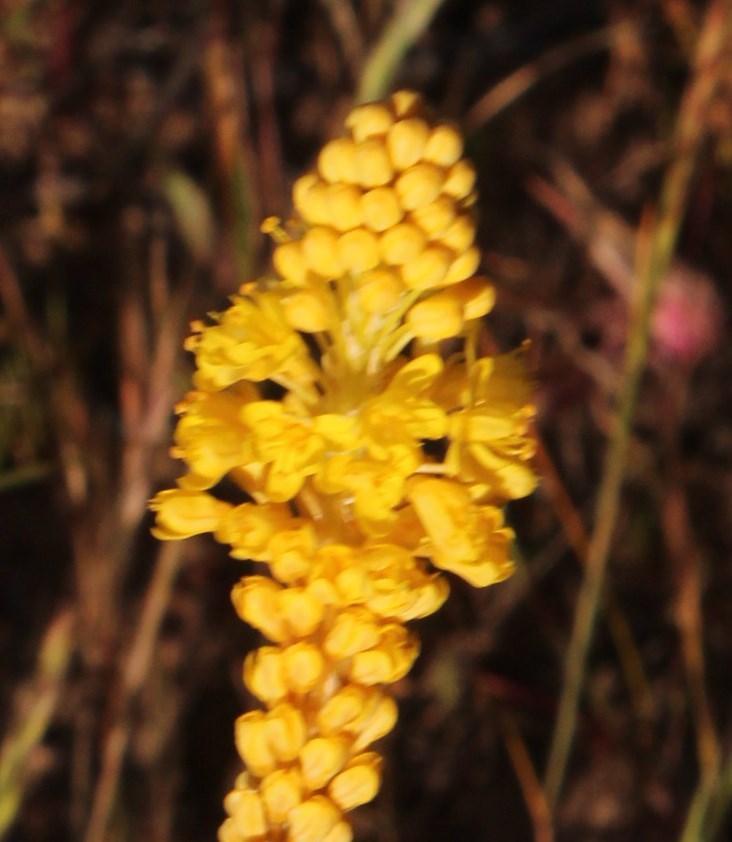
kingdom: Plantae
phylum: Tracheophyta
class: Liliopsida
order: Asparagales
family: Asphodelaceae
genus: Bulbinella
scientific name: Bulbinella triquetra
